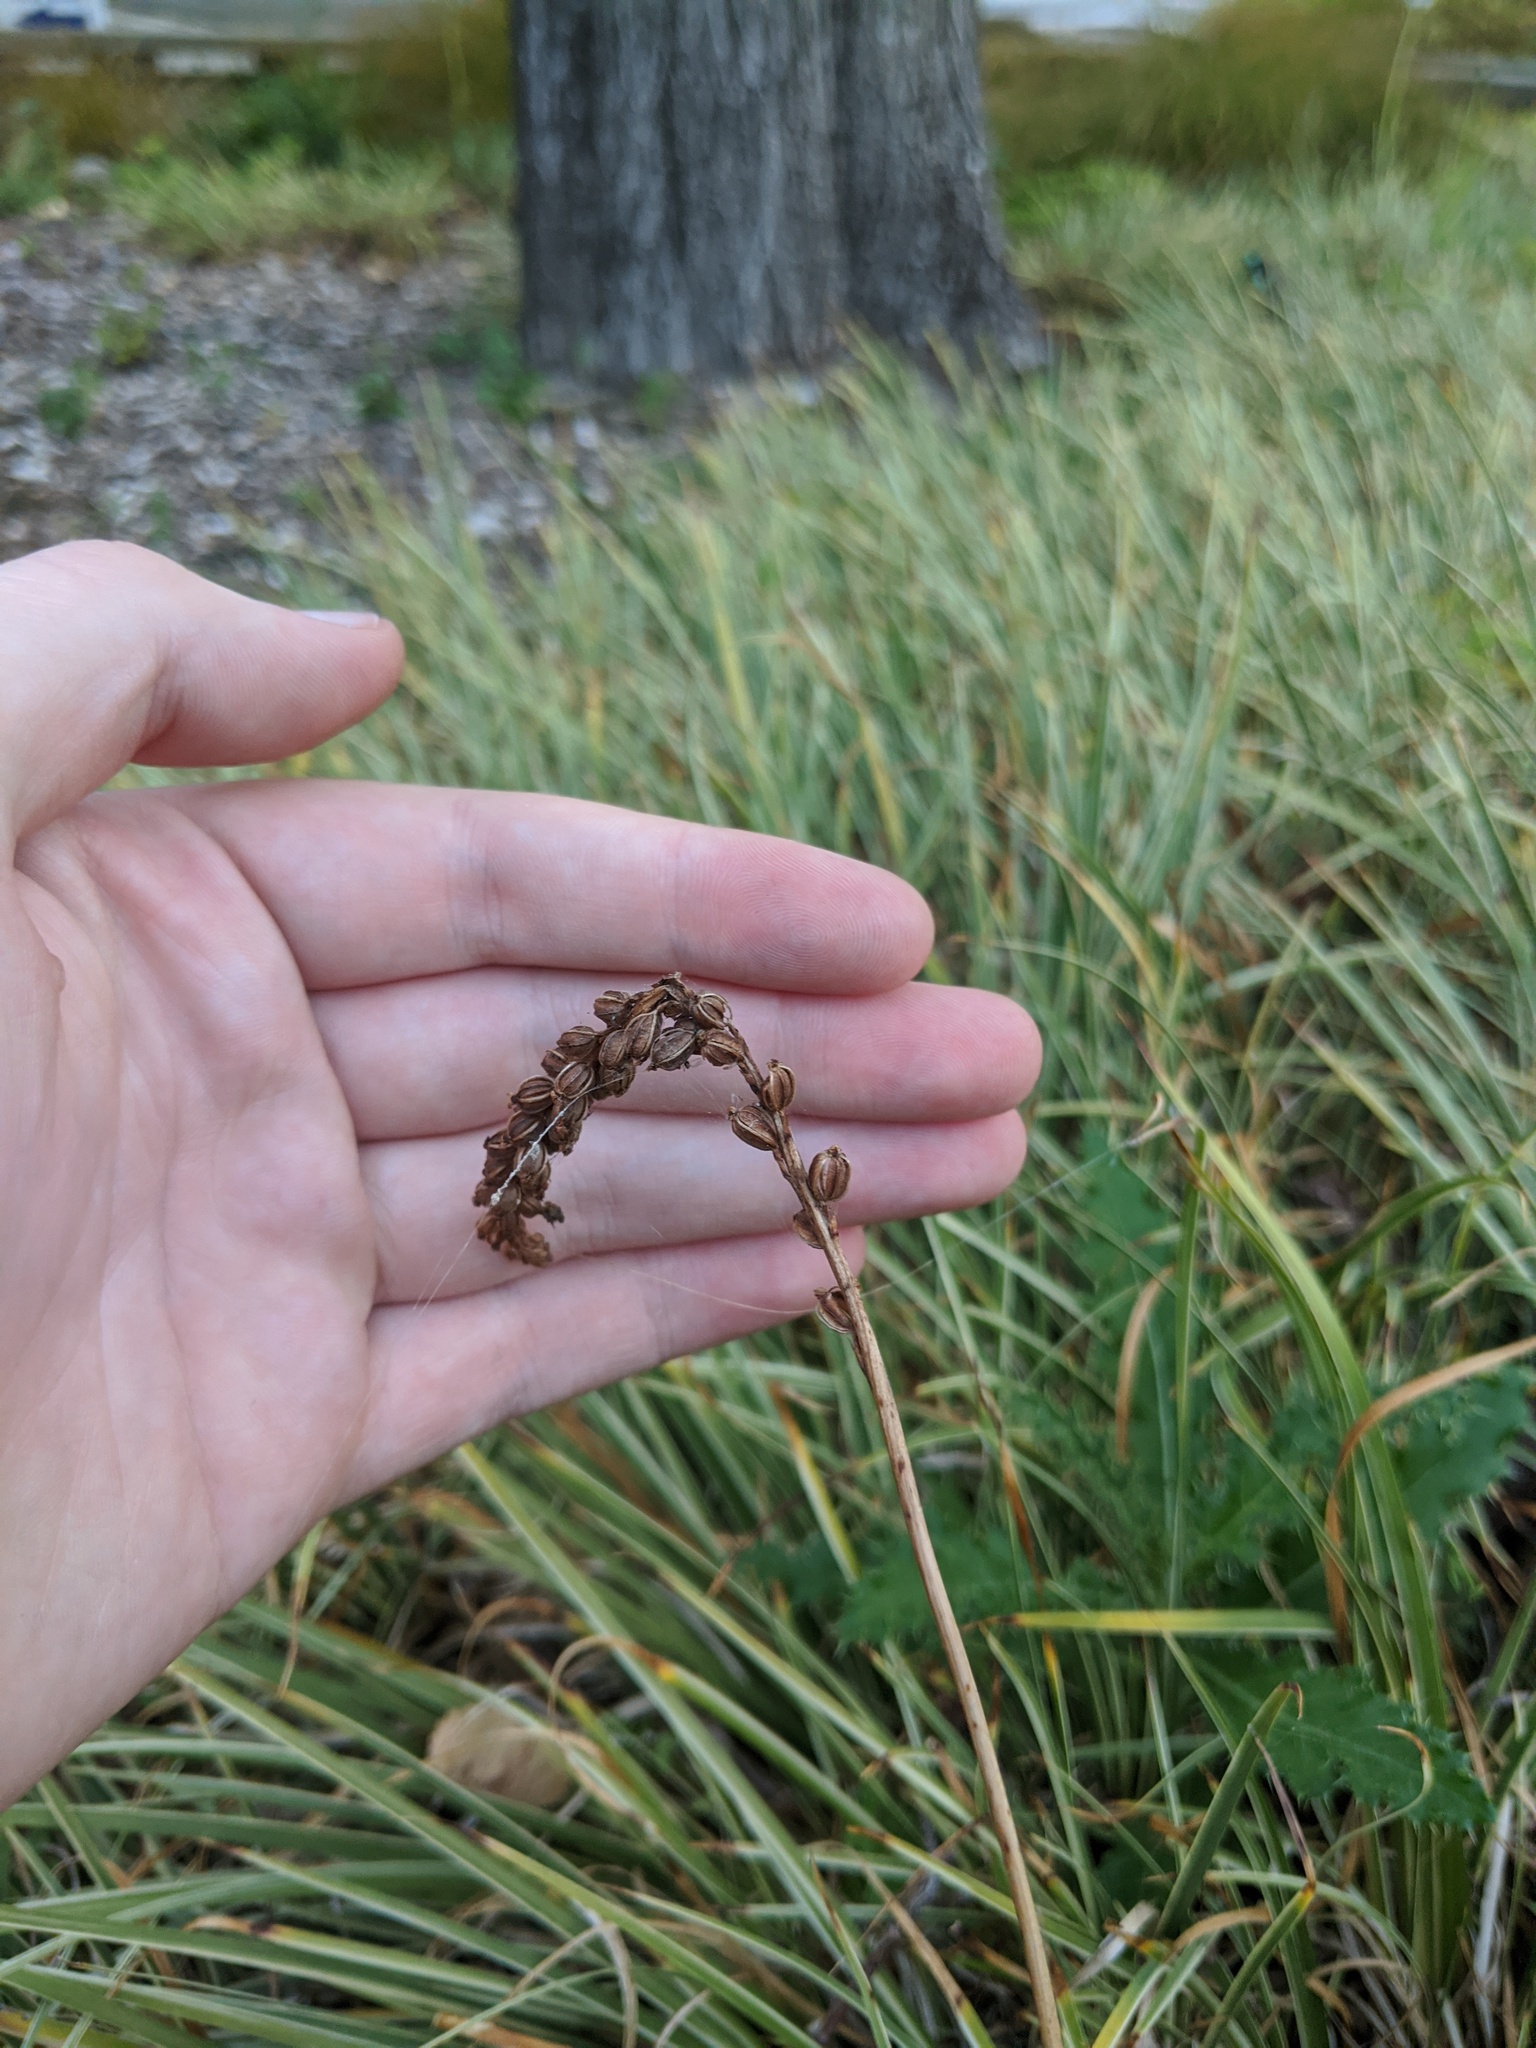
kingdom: Plantae
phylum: Tracheophyta
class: Liliopsida
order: Asparagales
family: Orchidaceae
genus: Microtis
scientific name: Microtis unifolia
